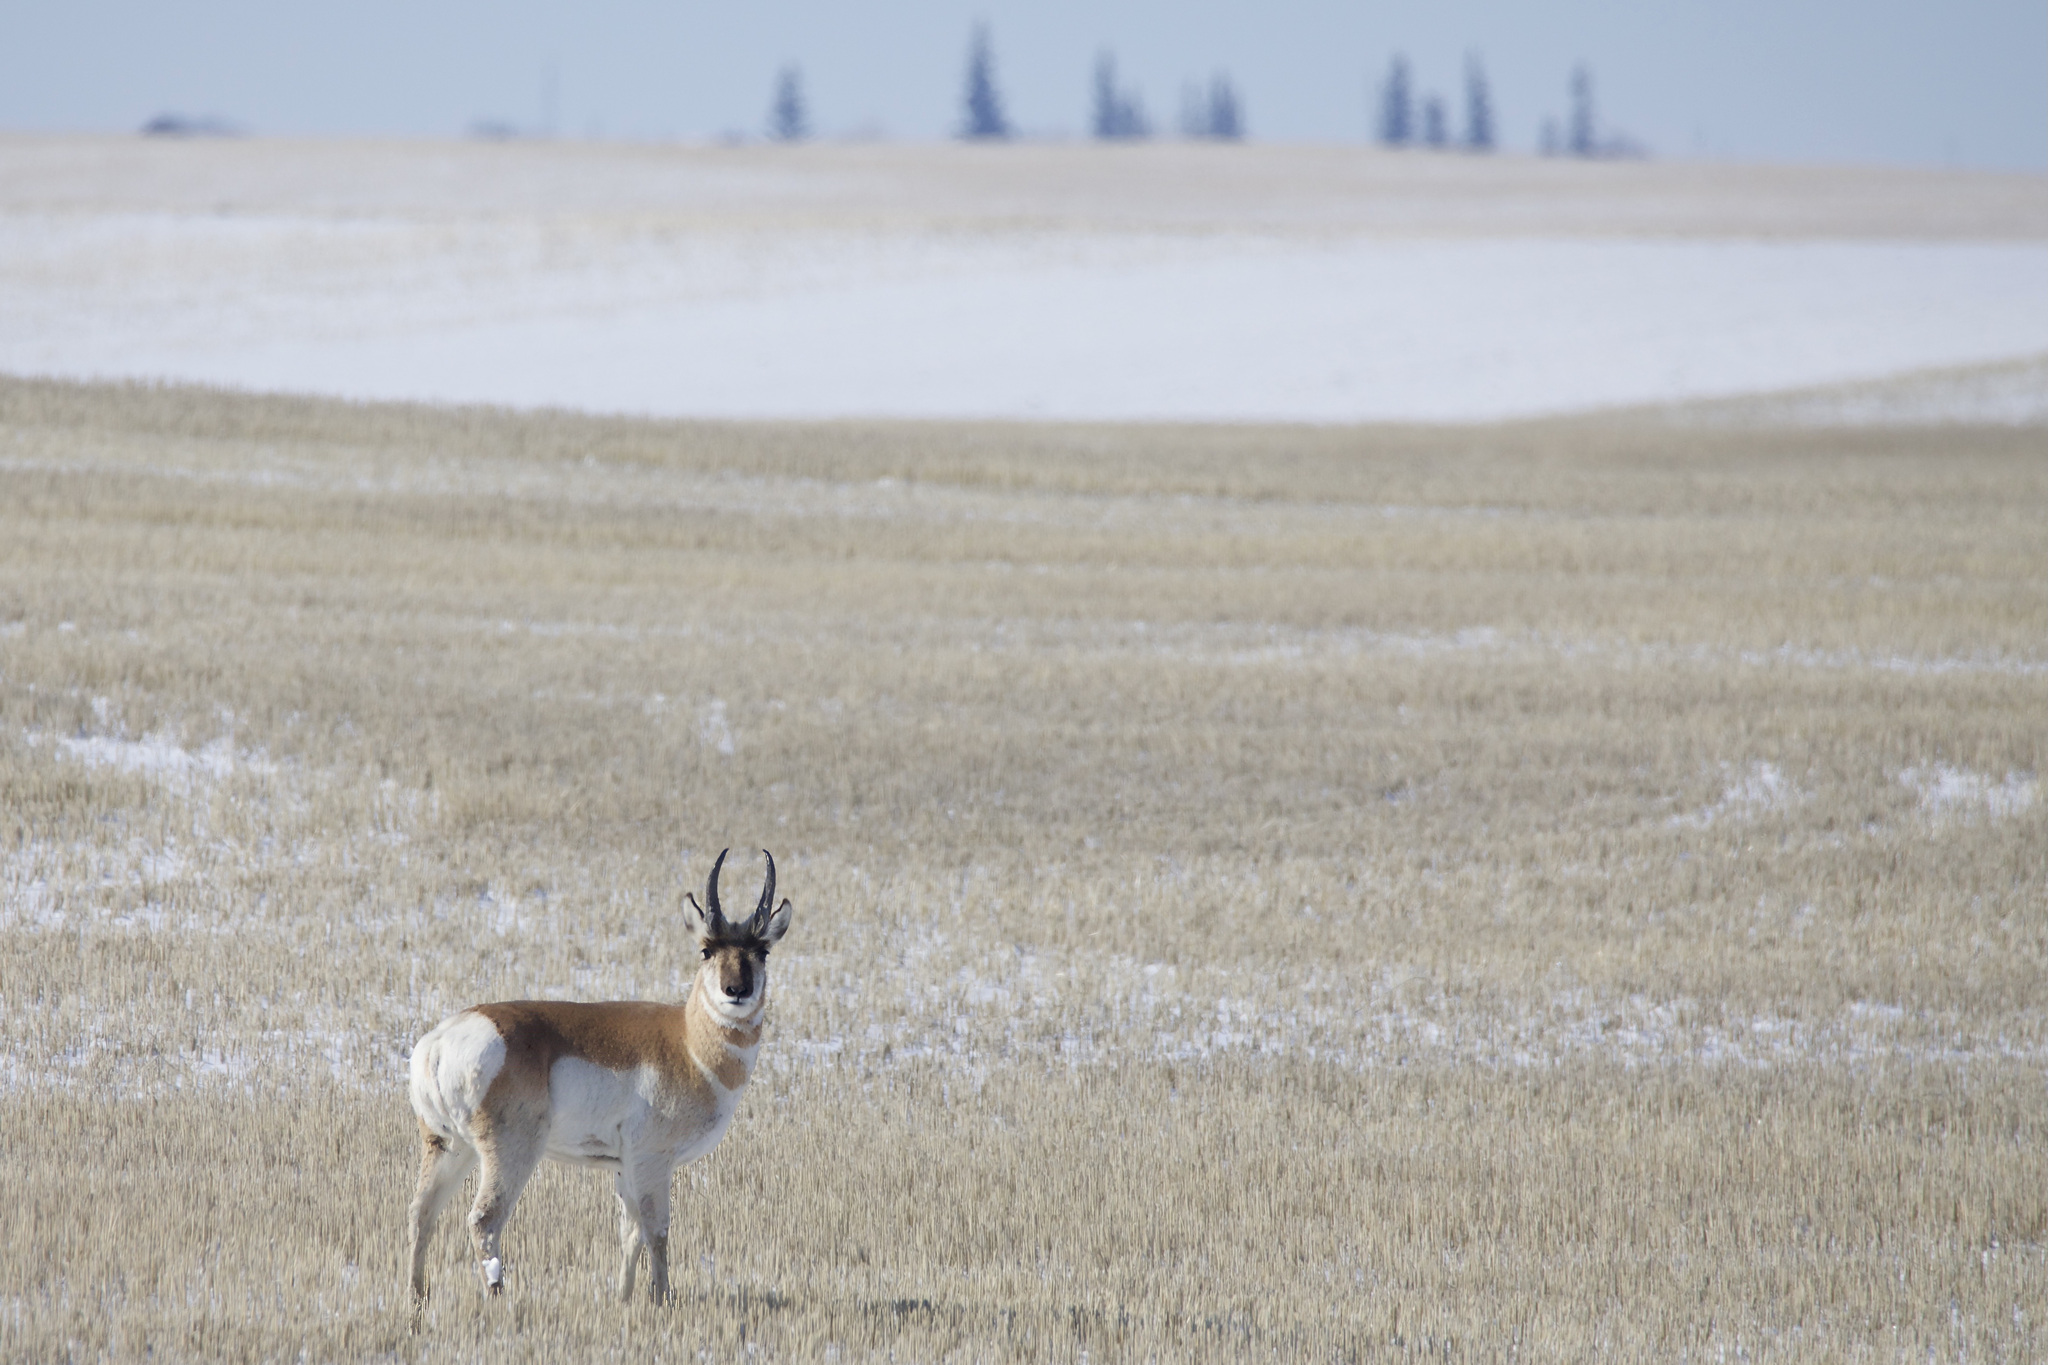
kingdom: Animalia
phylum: Chordata
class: Mammalia
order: Artiodactyla
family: Antilocapridae
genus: Antilocapra
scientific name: Antilocapra americana
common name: Pronghorn
